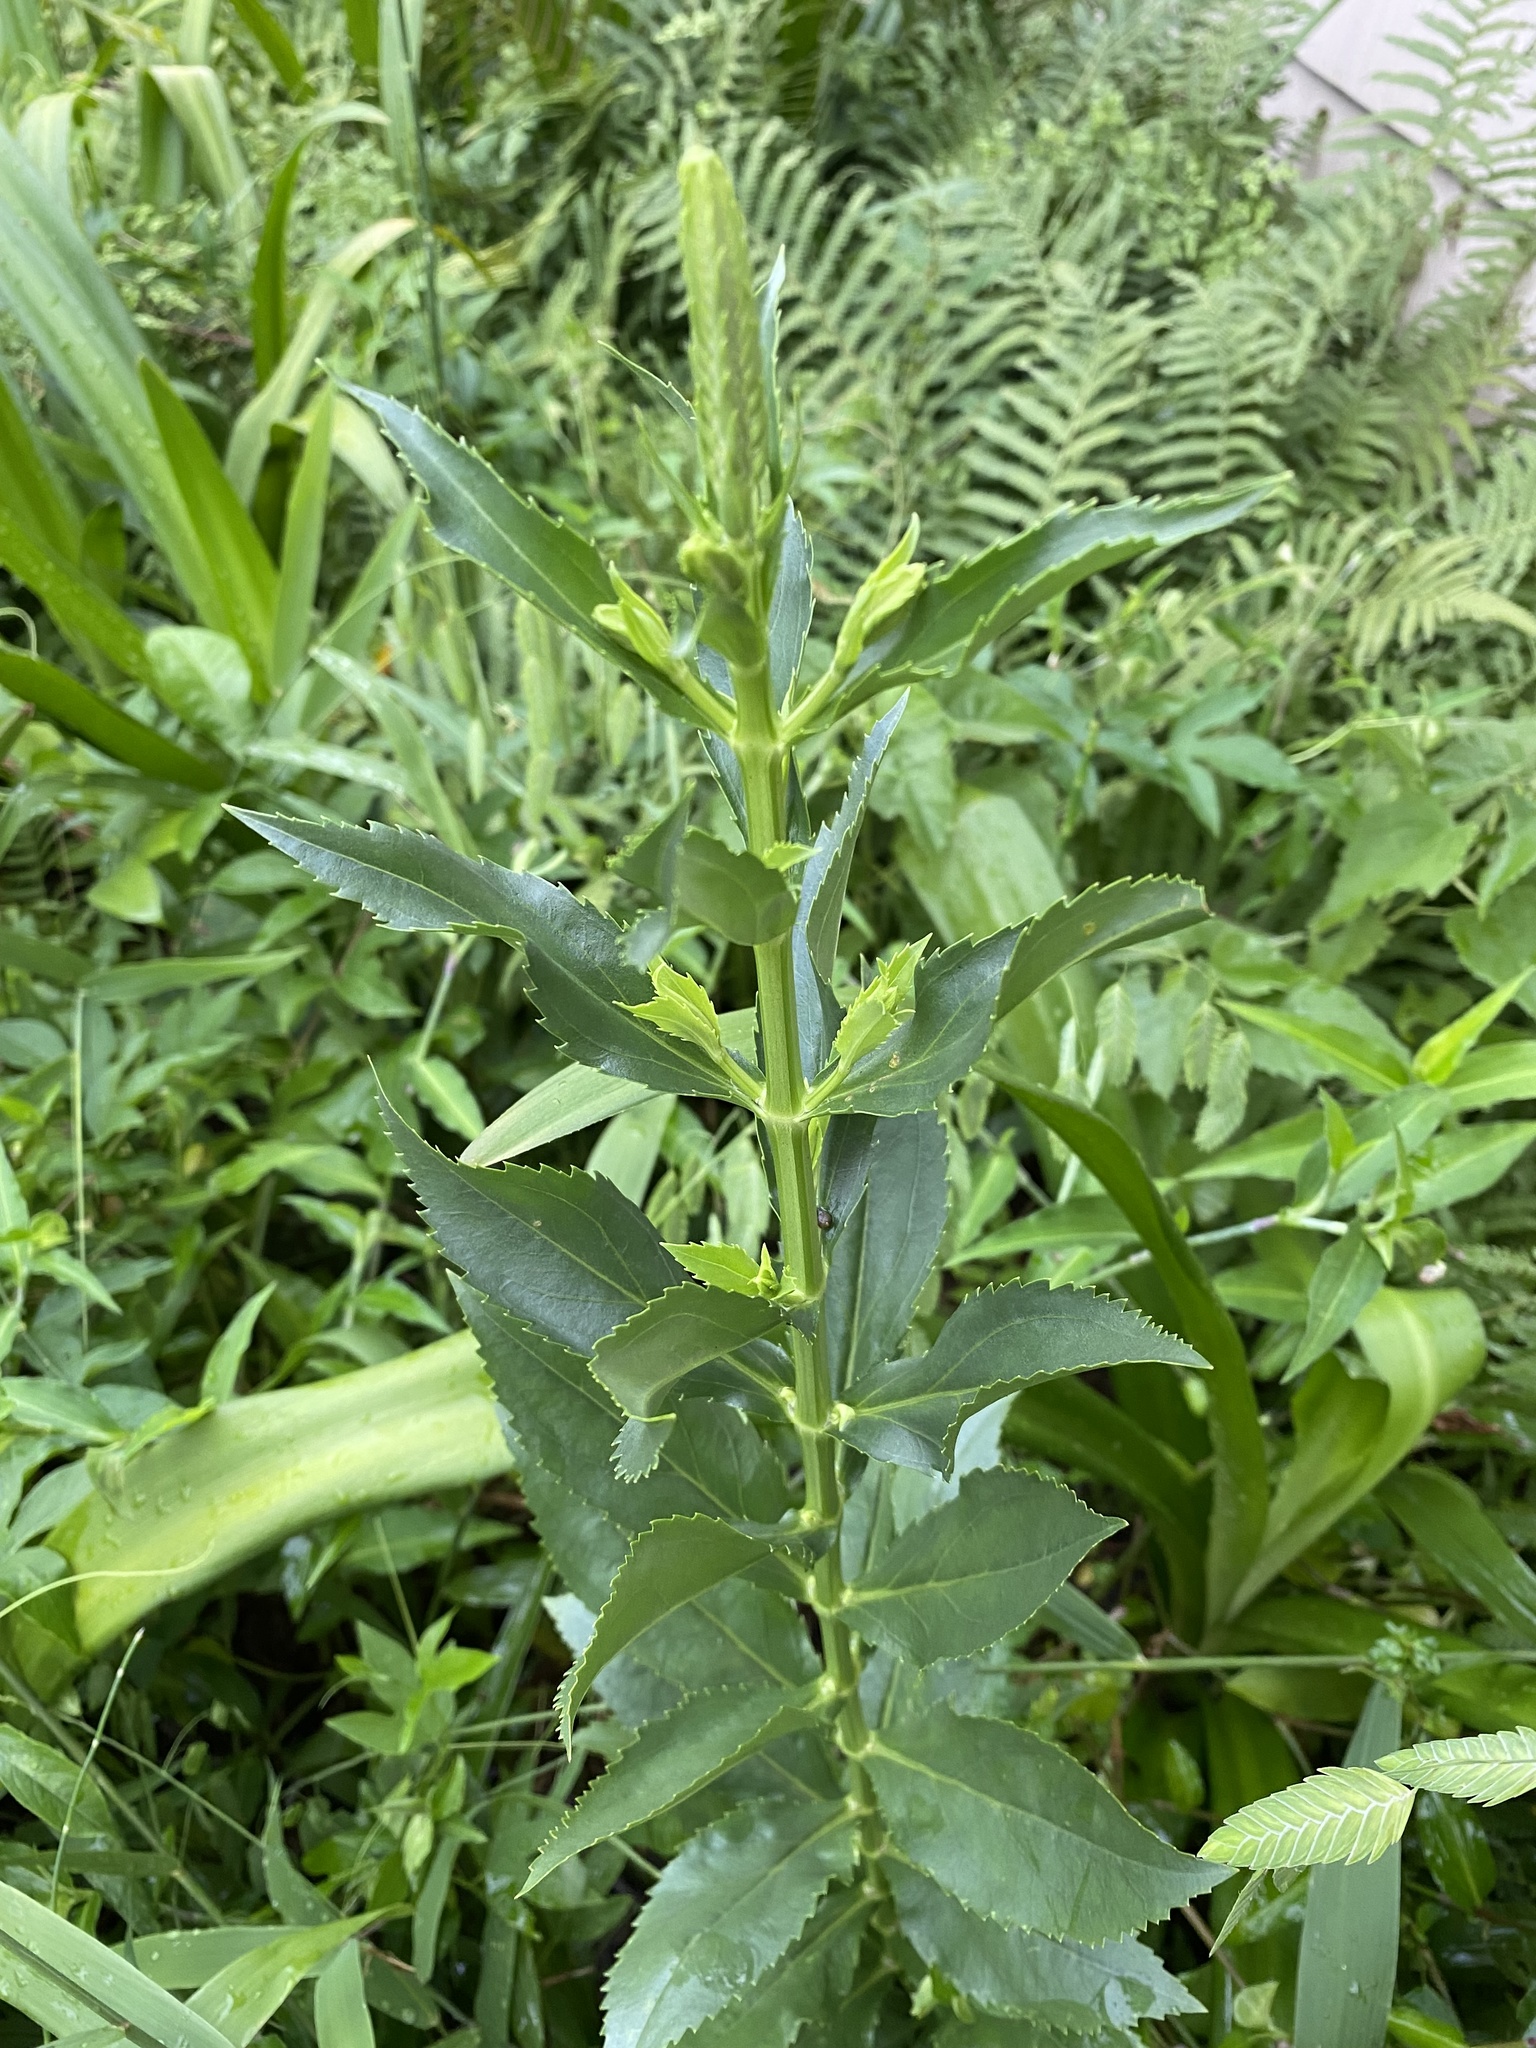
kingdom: Plantae
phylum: Tracheophyta
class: Magnoliopsida
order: Lamiales
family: Lamiaceae
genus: Physostegia
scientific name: Physostegia virginiana
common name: Obedient-plant
